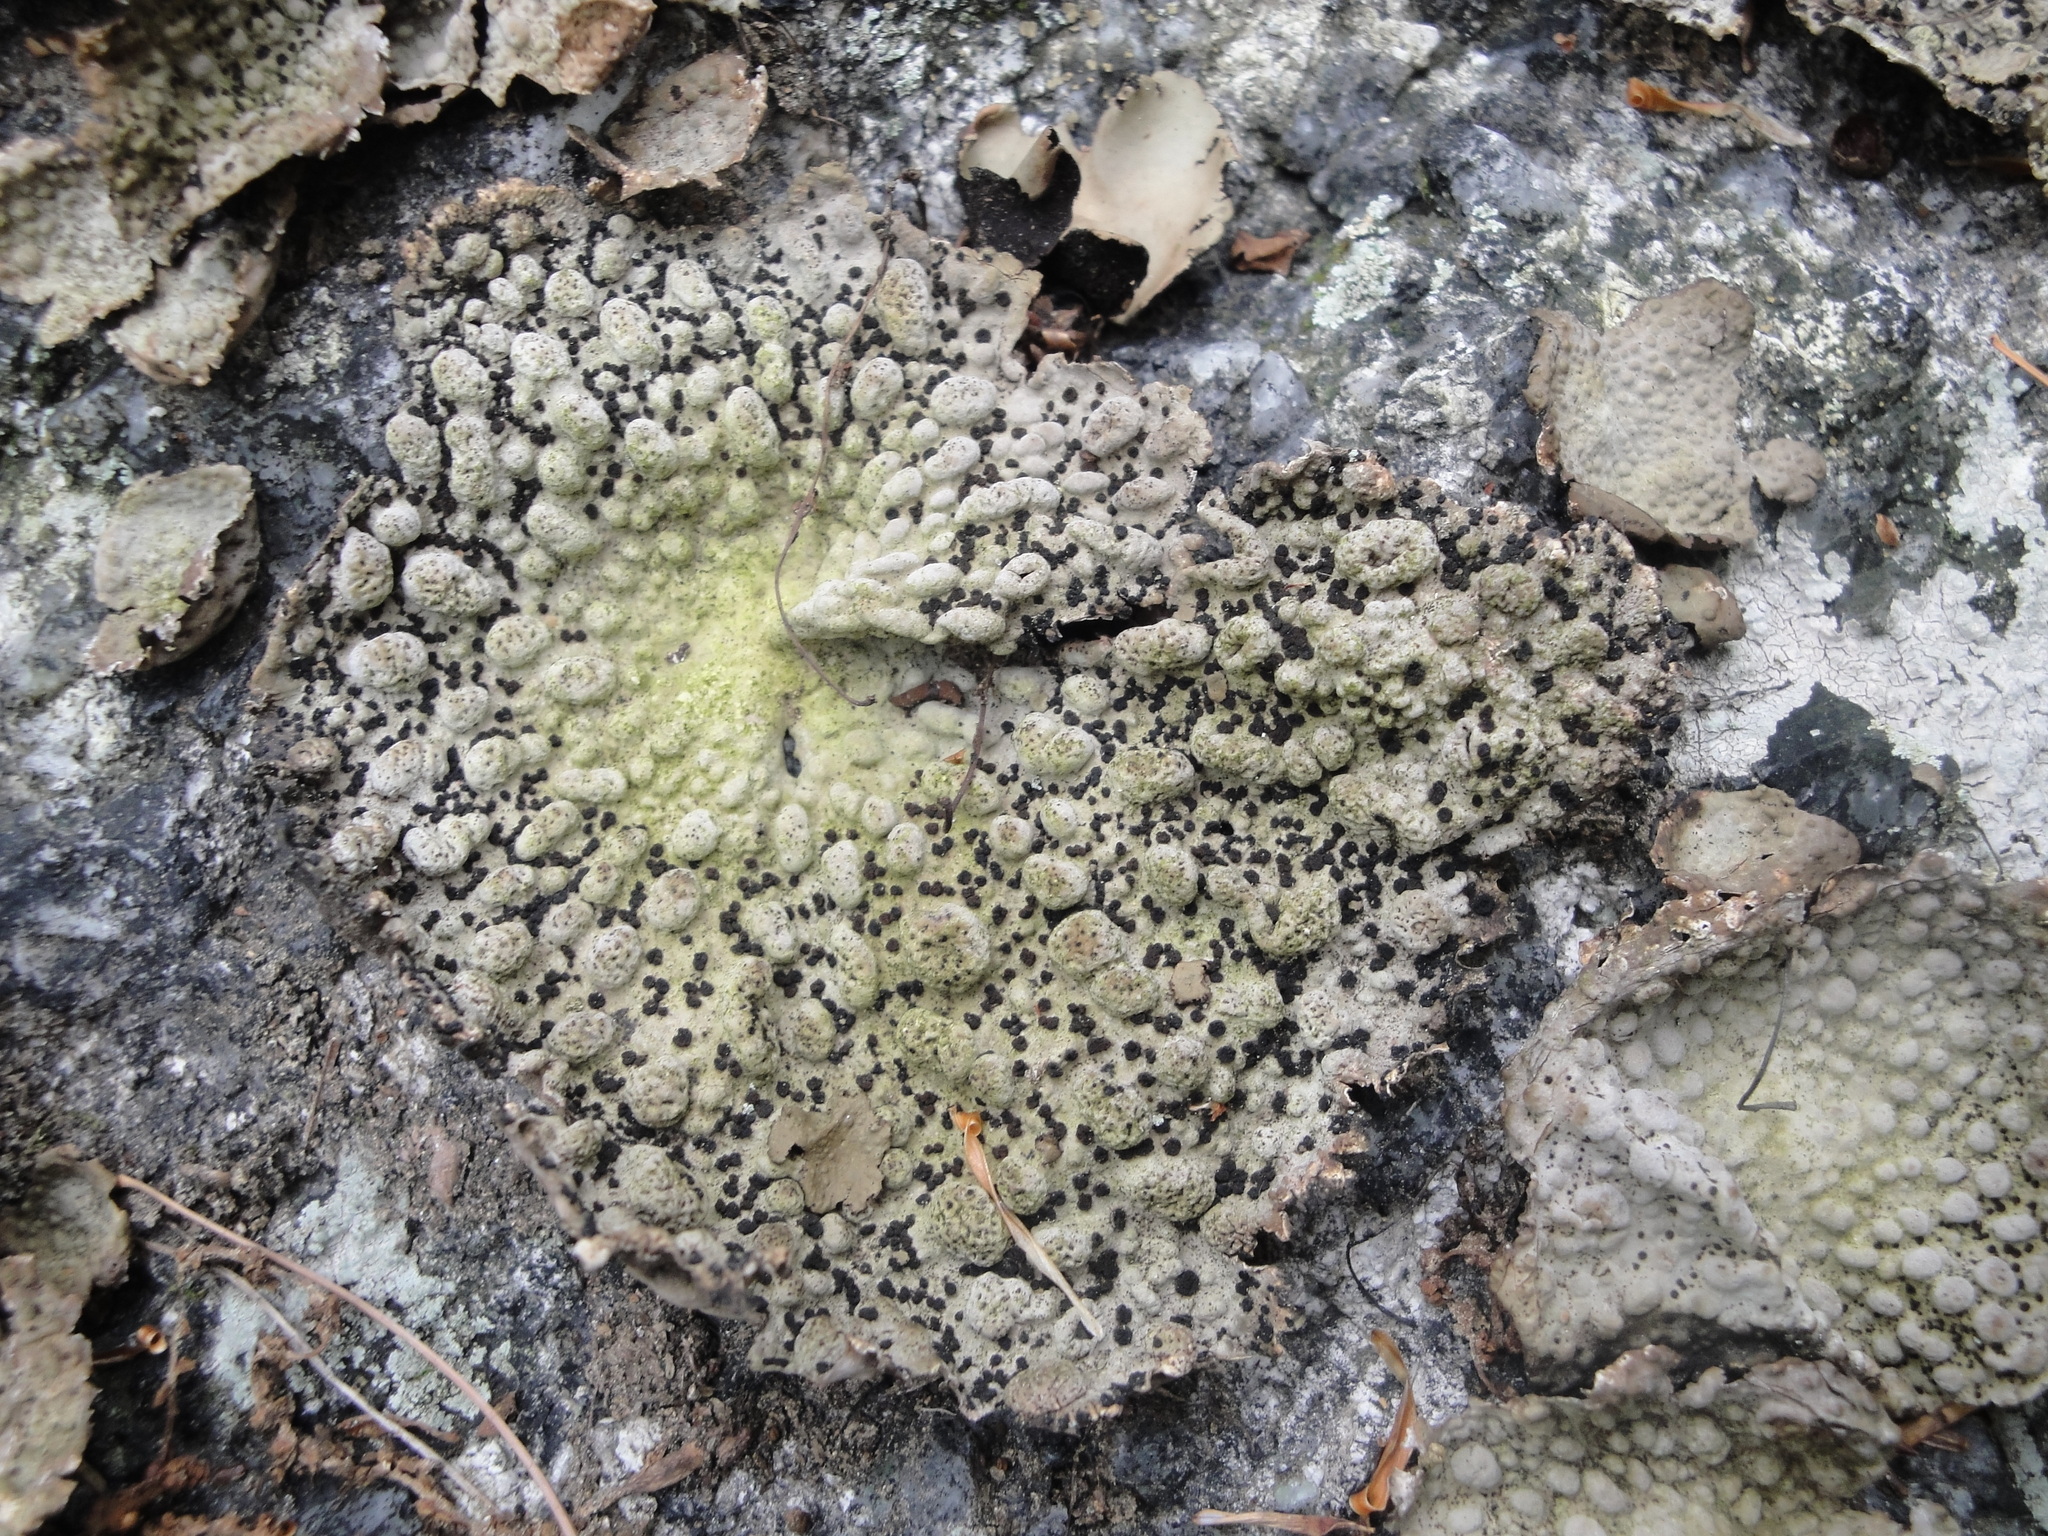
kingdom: Fungi
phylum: Ascomycota
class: Lecanoromycetes
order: Umbilicariales
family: Umbilicariaceae
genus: Lasallia
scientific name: Lasallia papulosa
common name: Common toadskin lichen
